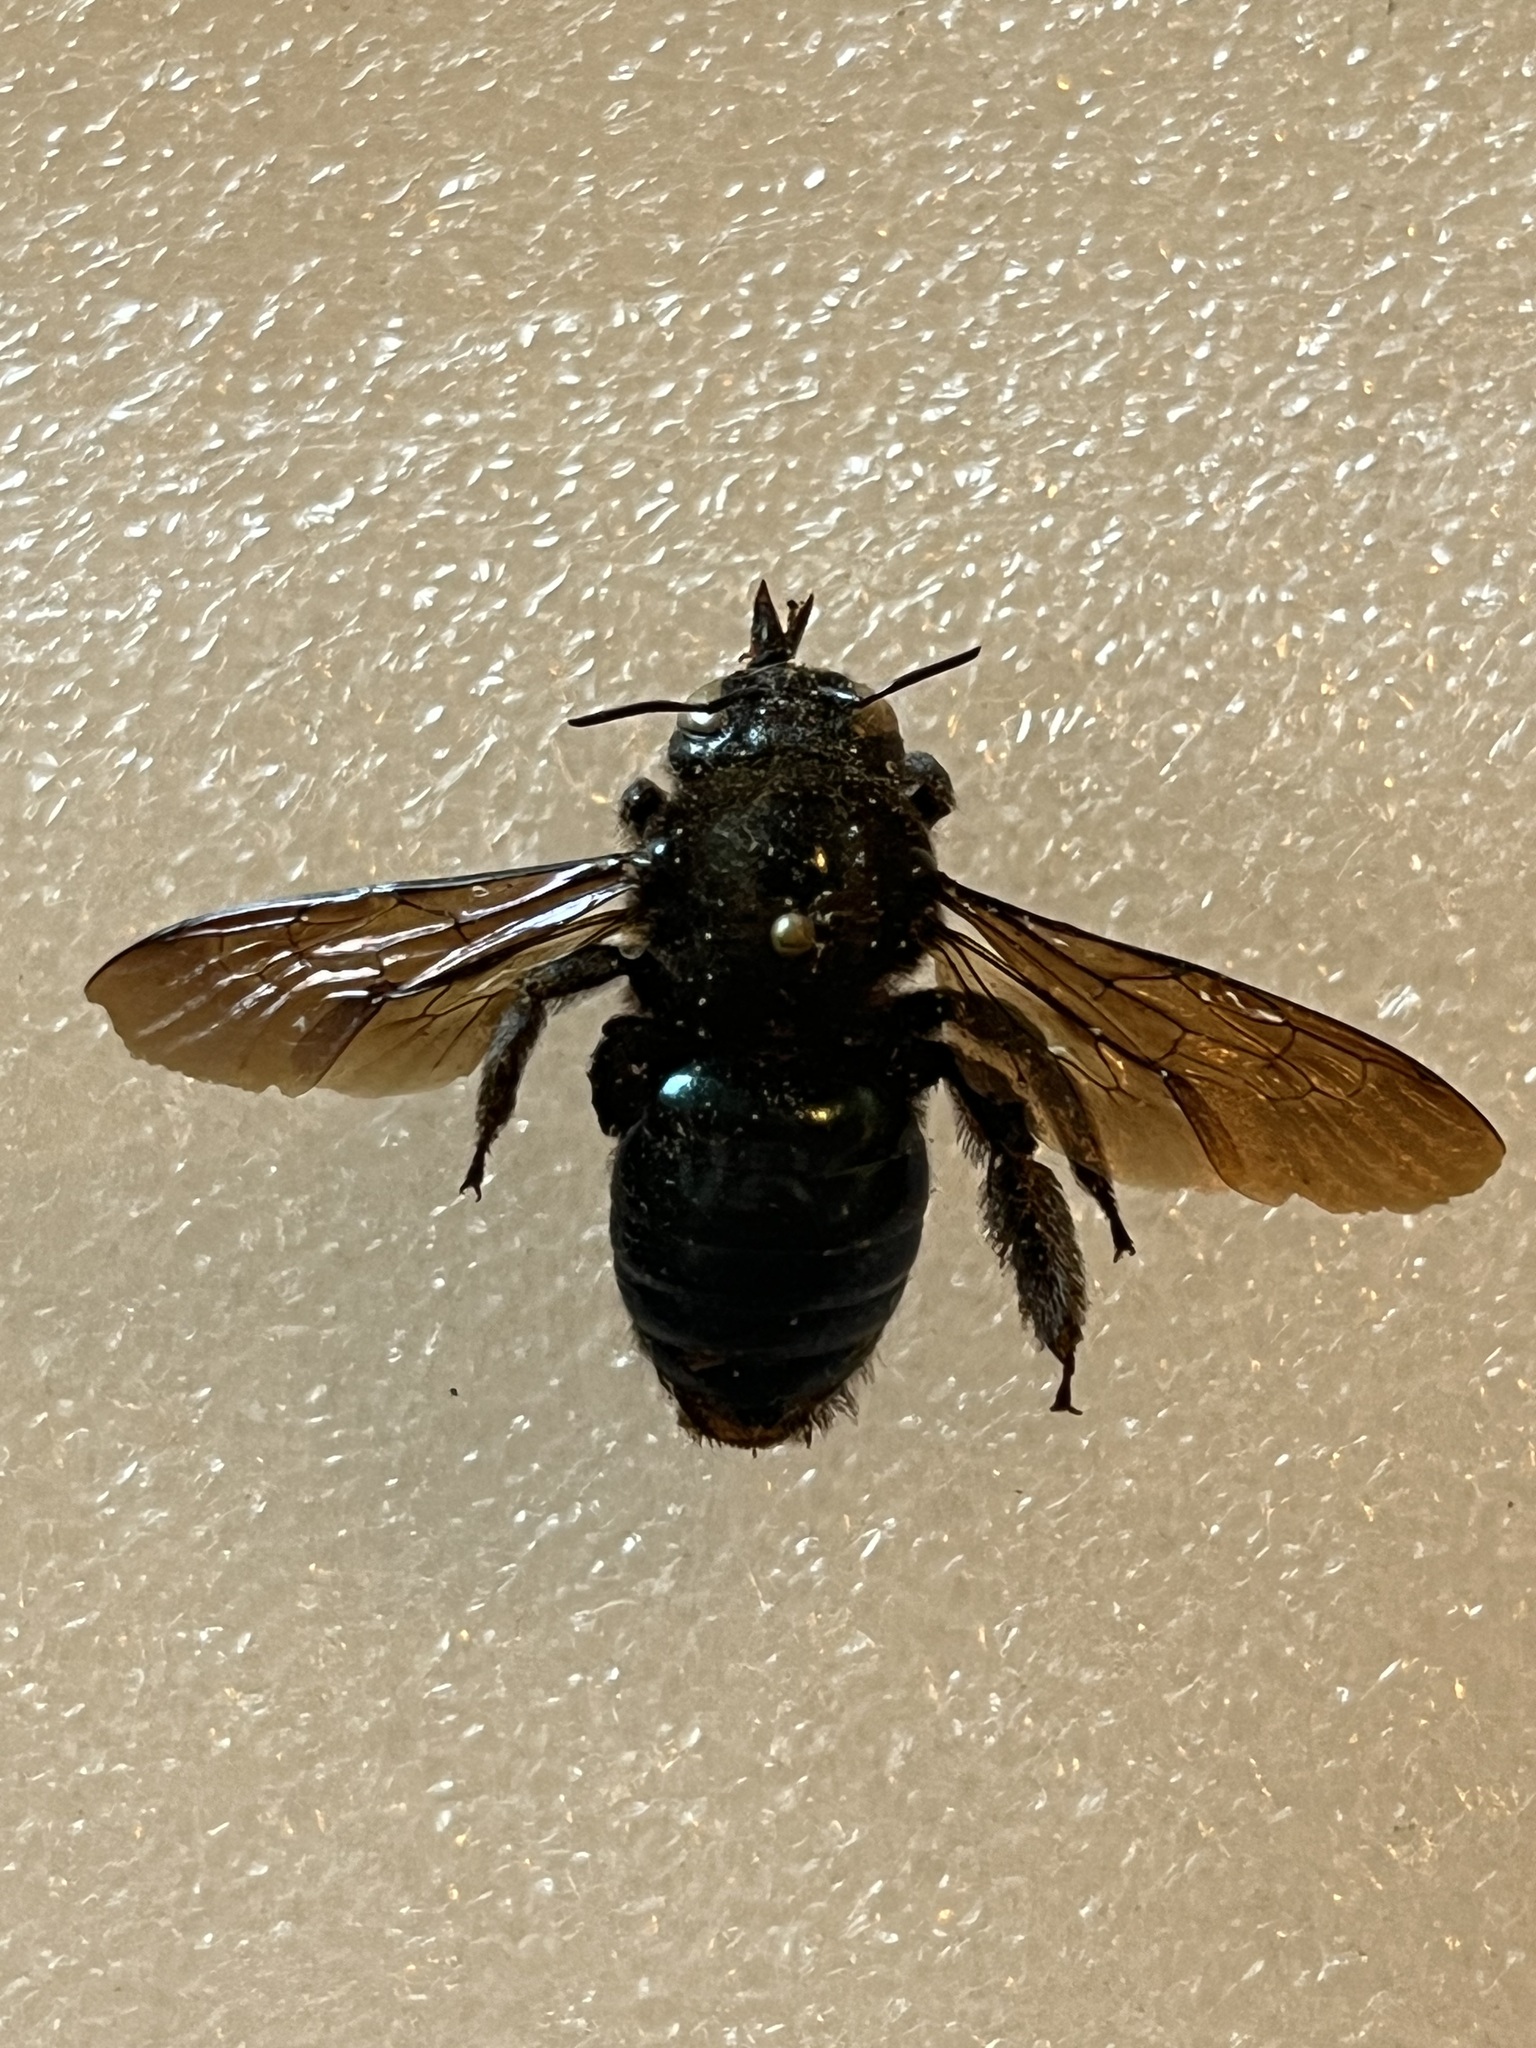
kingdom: Animalia
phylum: Arthropoda
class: Insecta
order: Hymenoptera
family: Apidae
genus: Xylocopa
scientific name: Xylocopa californica
